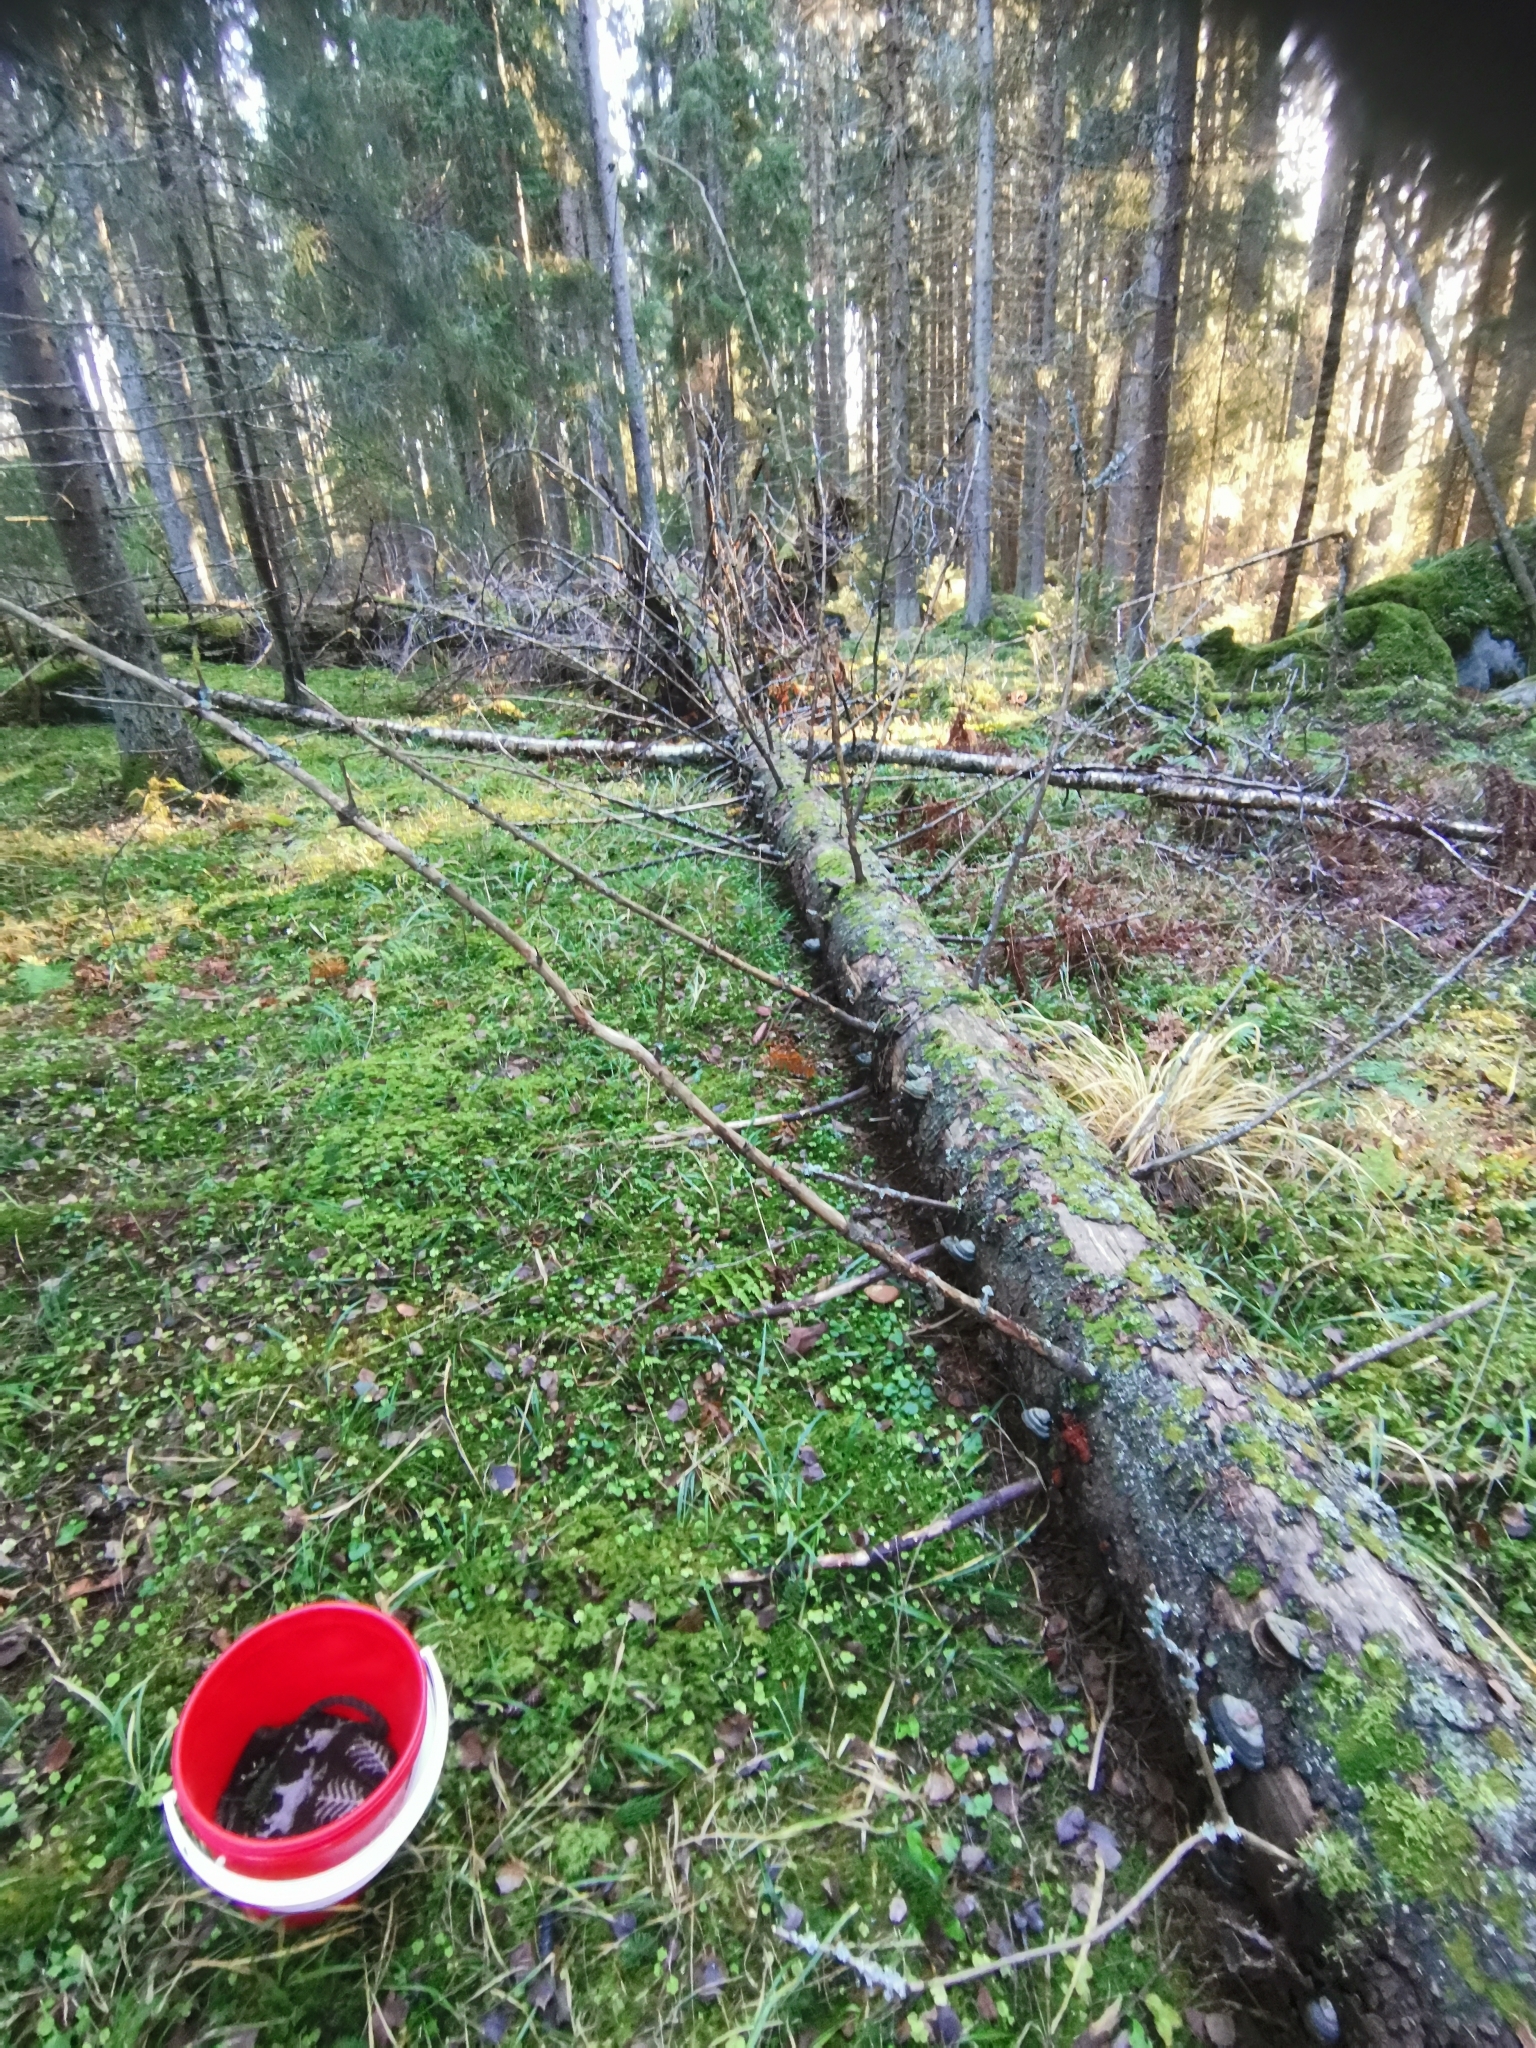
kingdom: Fungi
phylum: Basidiomycota
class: Agaricomycetes
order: Polyporales
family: Pycnoporellaceae
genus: Pycnoporellus
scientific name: Pycnoporellus fulgens
